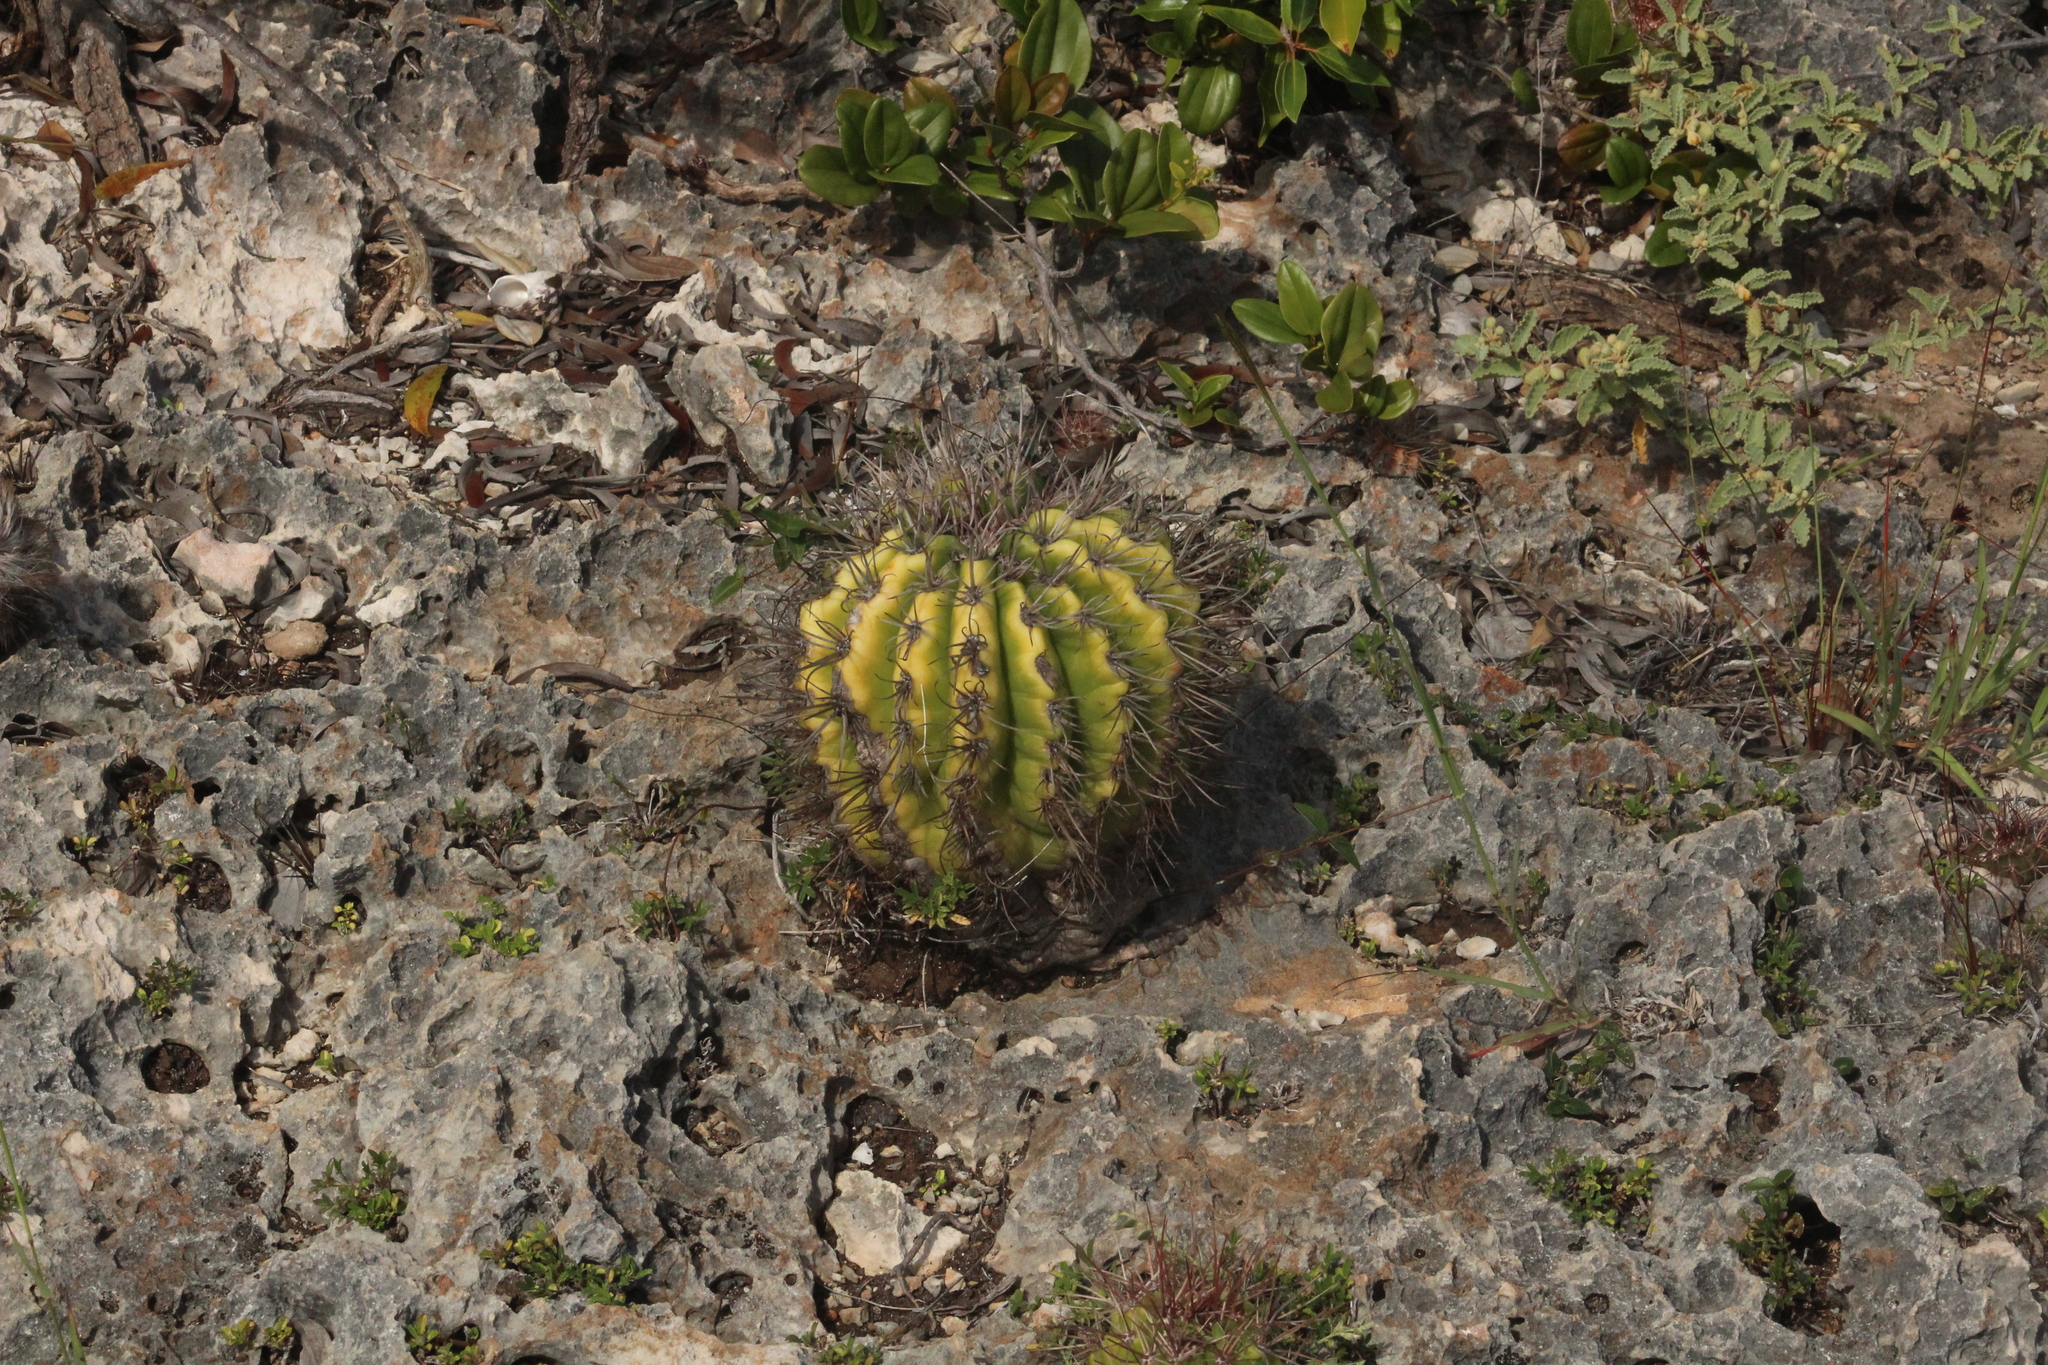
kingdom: Plantae
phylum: Tracheophyta
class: Magnoliopsida
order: Caryophyllales
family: Cactaceae
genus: Melocactus
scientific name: Melocactus intortus
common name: Barrel cactus
